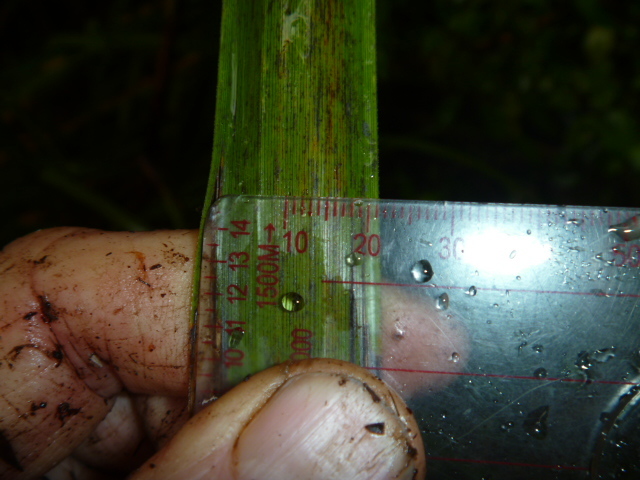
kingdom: Plantae
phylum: Tracheophyta
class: Liliopsida
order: Poales
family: Cyperaceae
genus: Gahnia
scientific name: Gahnia xanthocarpa
